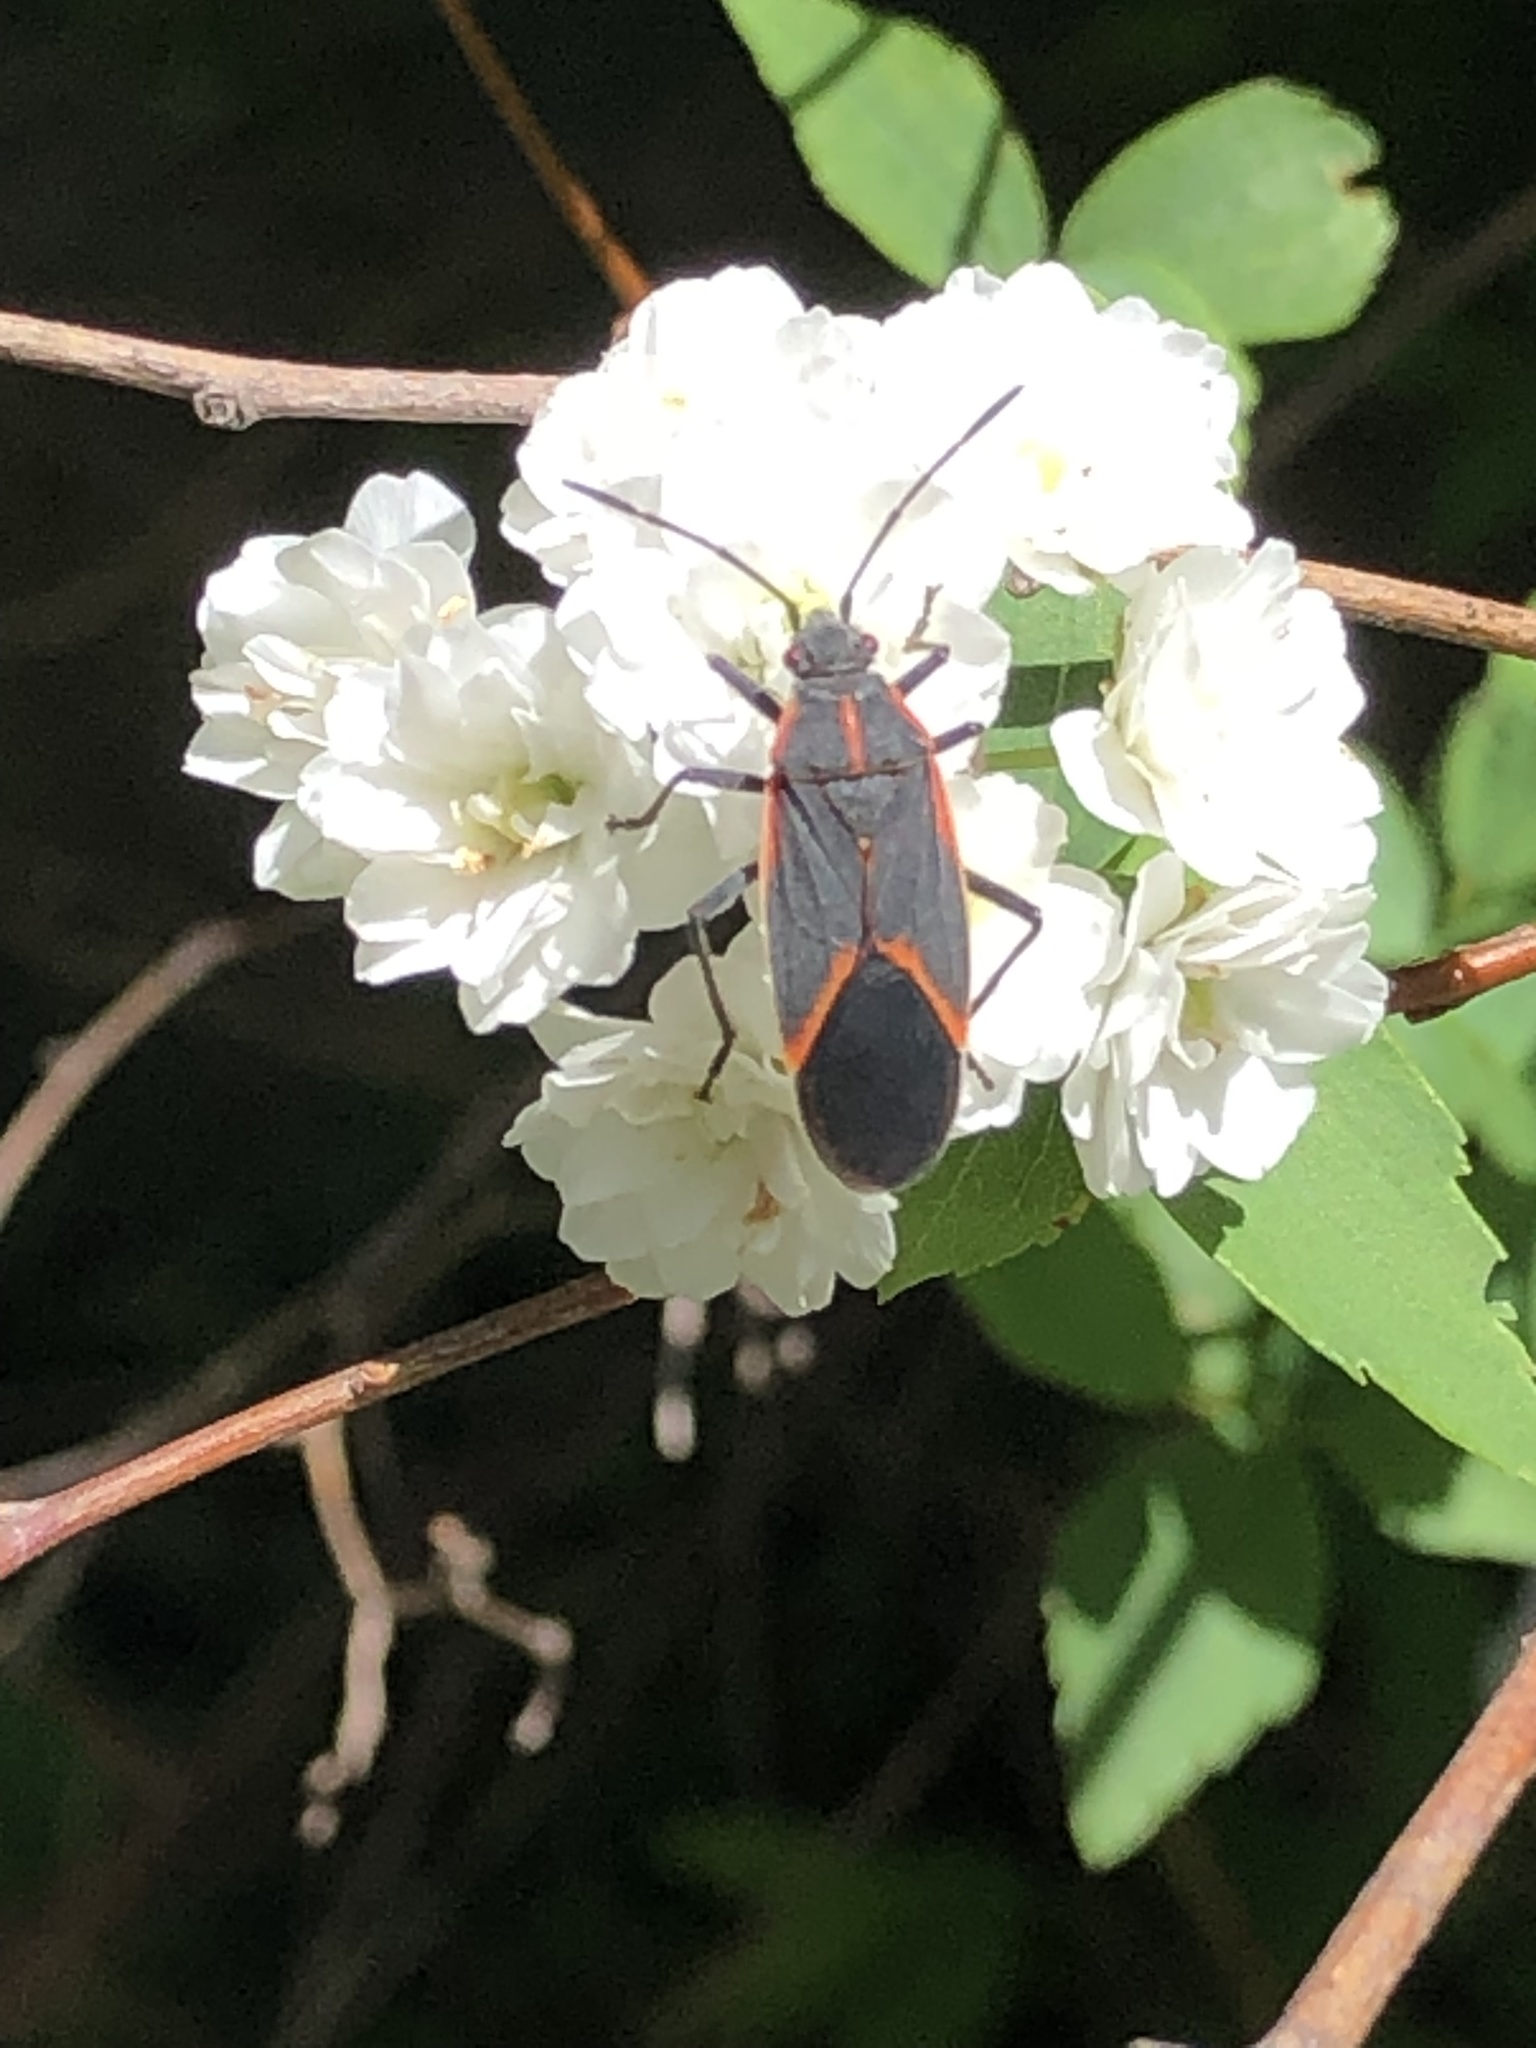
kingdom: Animalia
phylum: Arthropoda
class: Insecta
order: Hemiptera
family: Rhopalidae
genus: Boisea
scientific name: Boisea trivittata
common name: Boxelder bug
